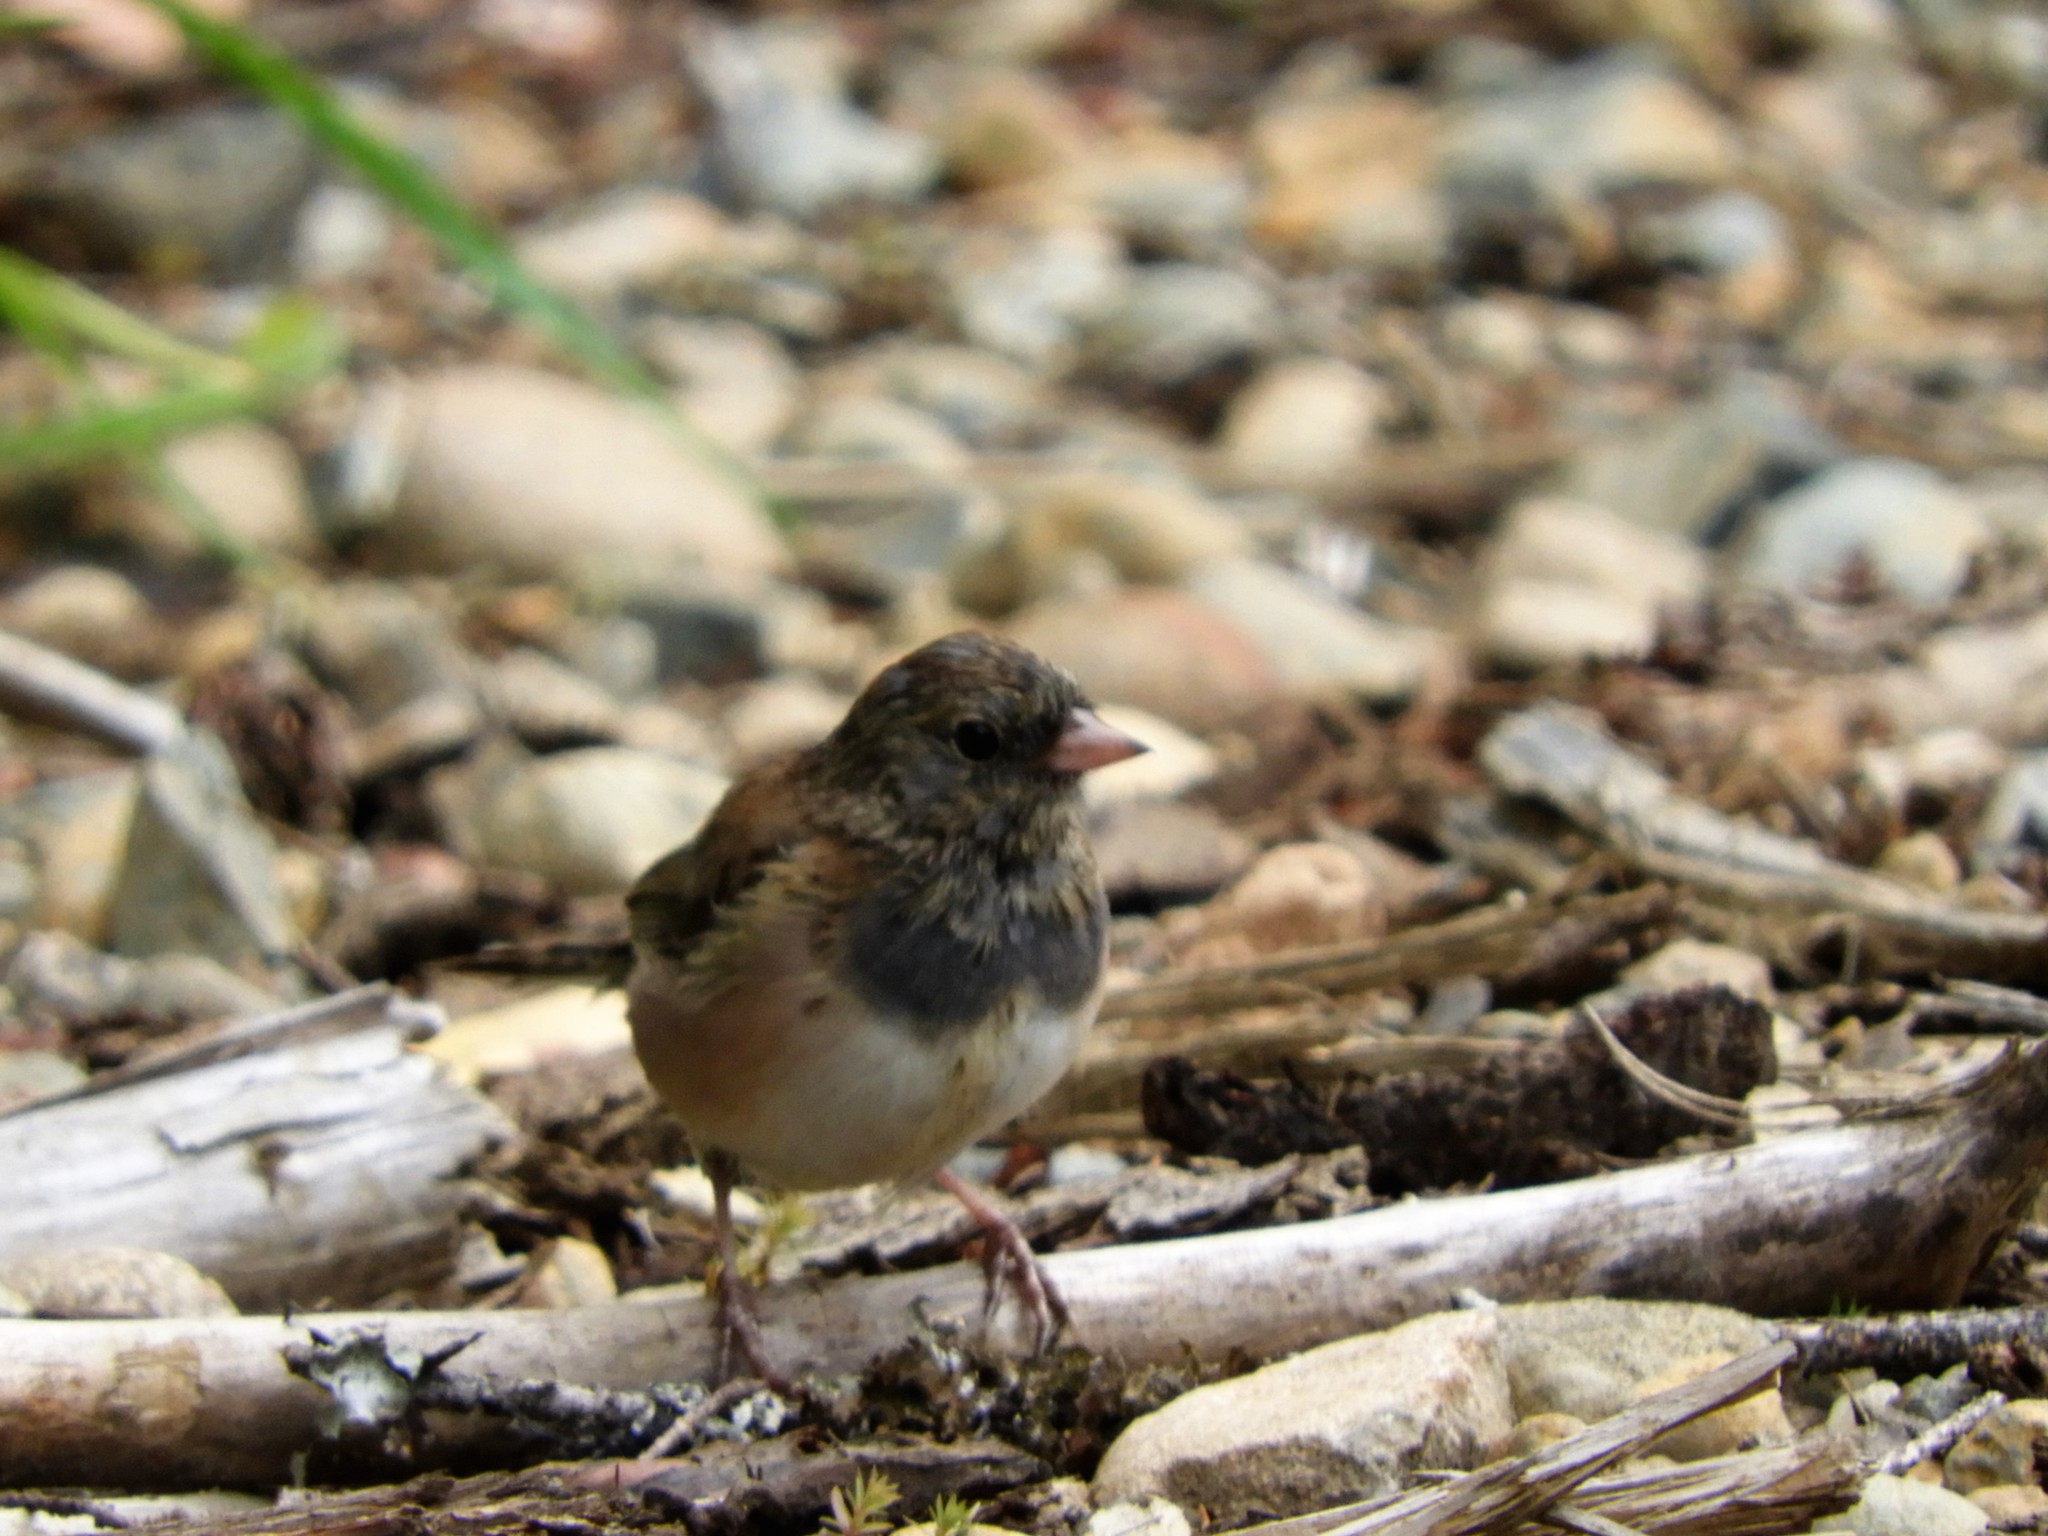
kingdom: Animalia
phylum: Chordata
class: Aves
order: Passeriformes
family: Passerellidae
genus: Junco
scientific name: Junco hyemalis
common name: Dark-eyed junco
